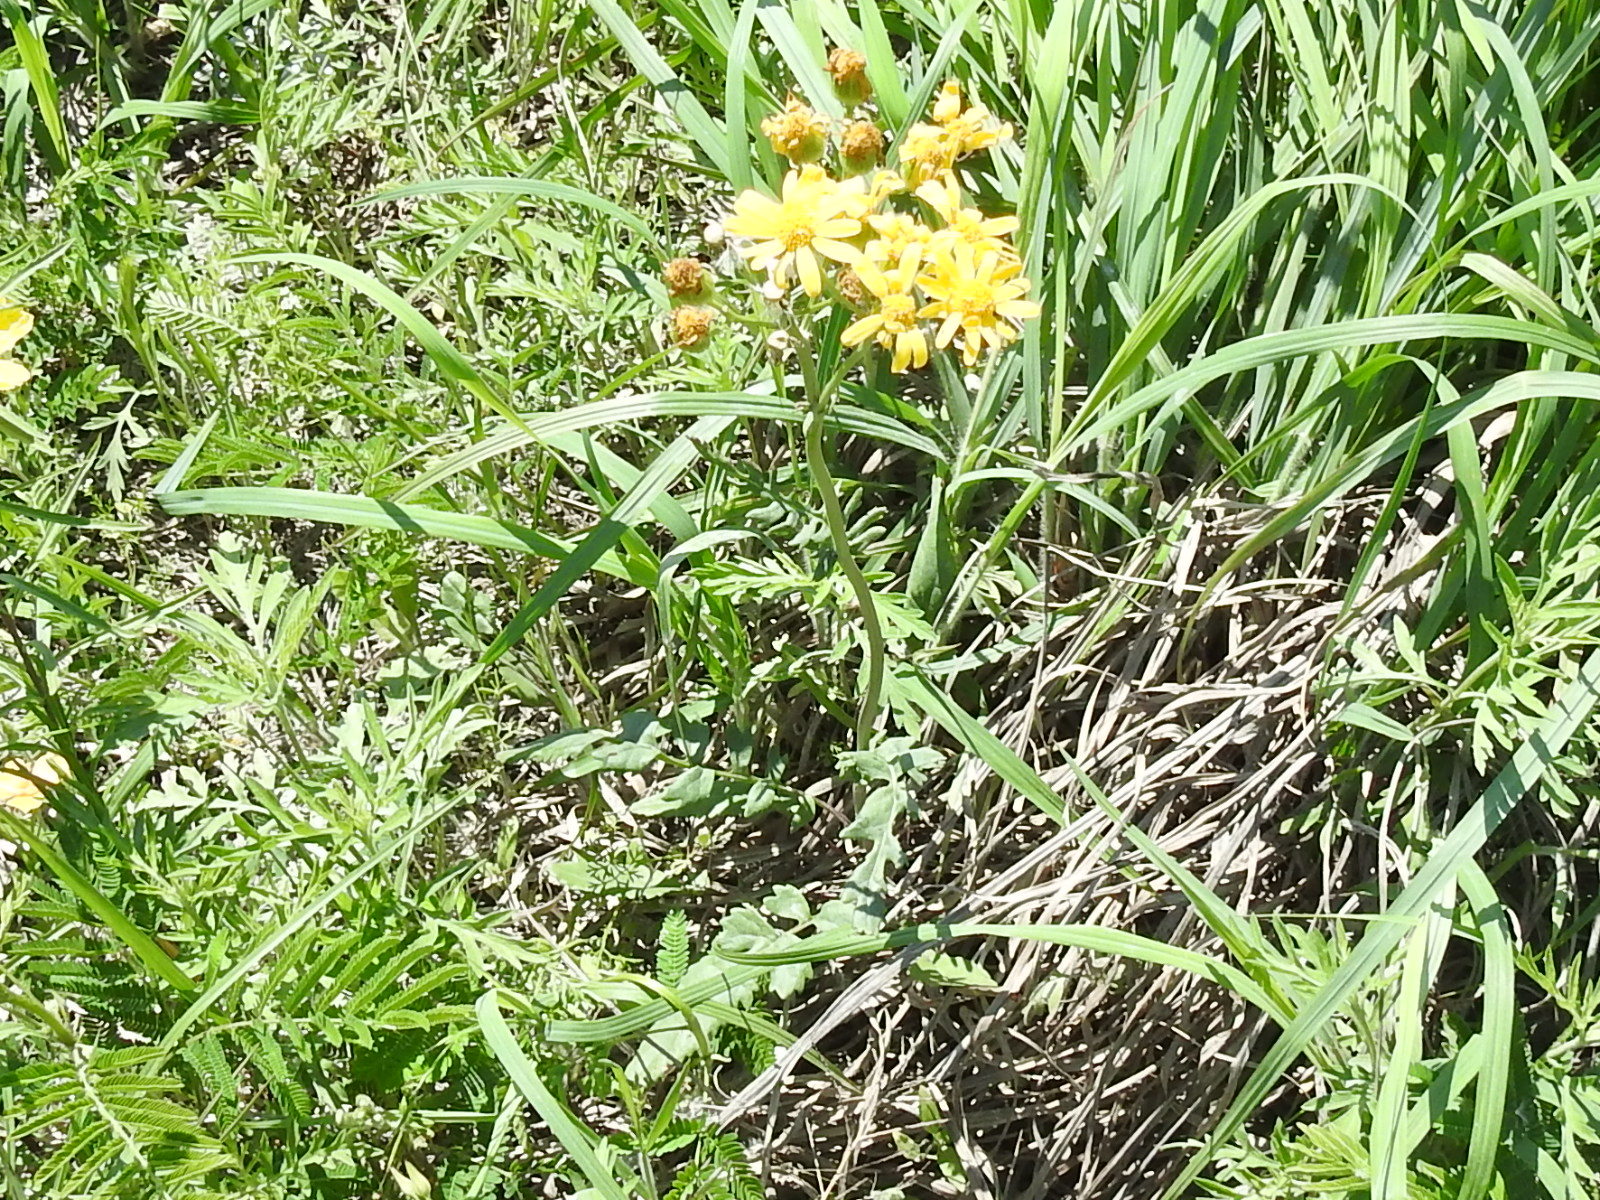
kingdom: Plantae
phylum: Tracheophyta
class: Magnoliopsida
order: Asterales
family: Asteraceae
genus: Packera
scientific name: Packera tampicana
